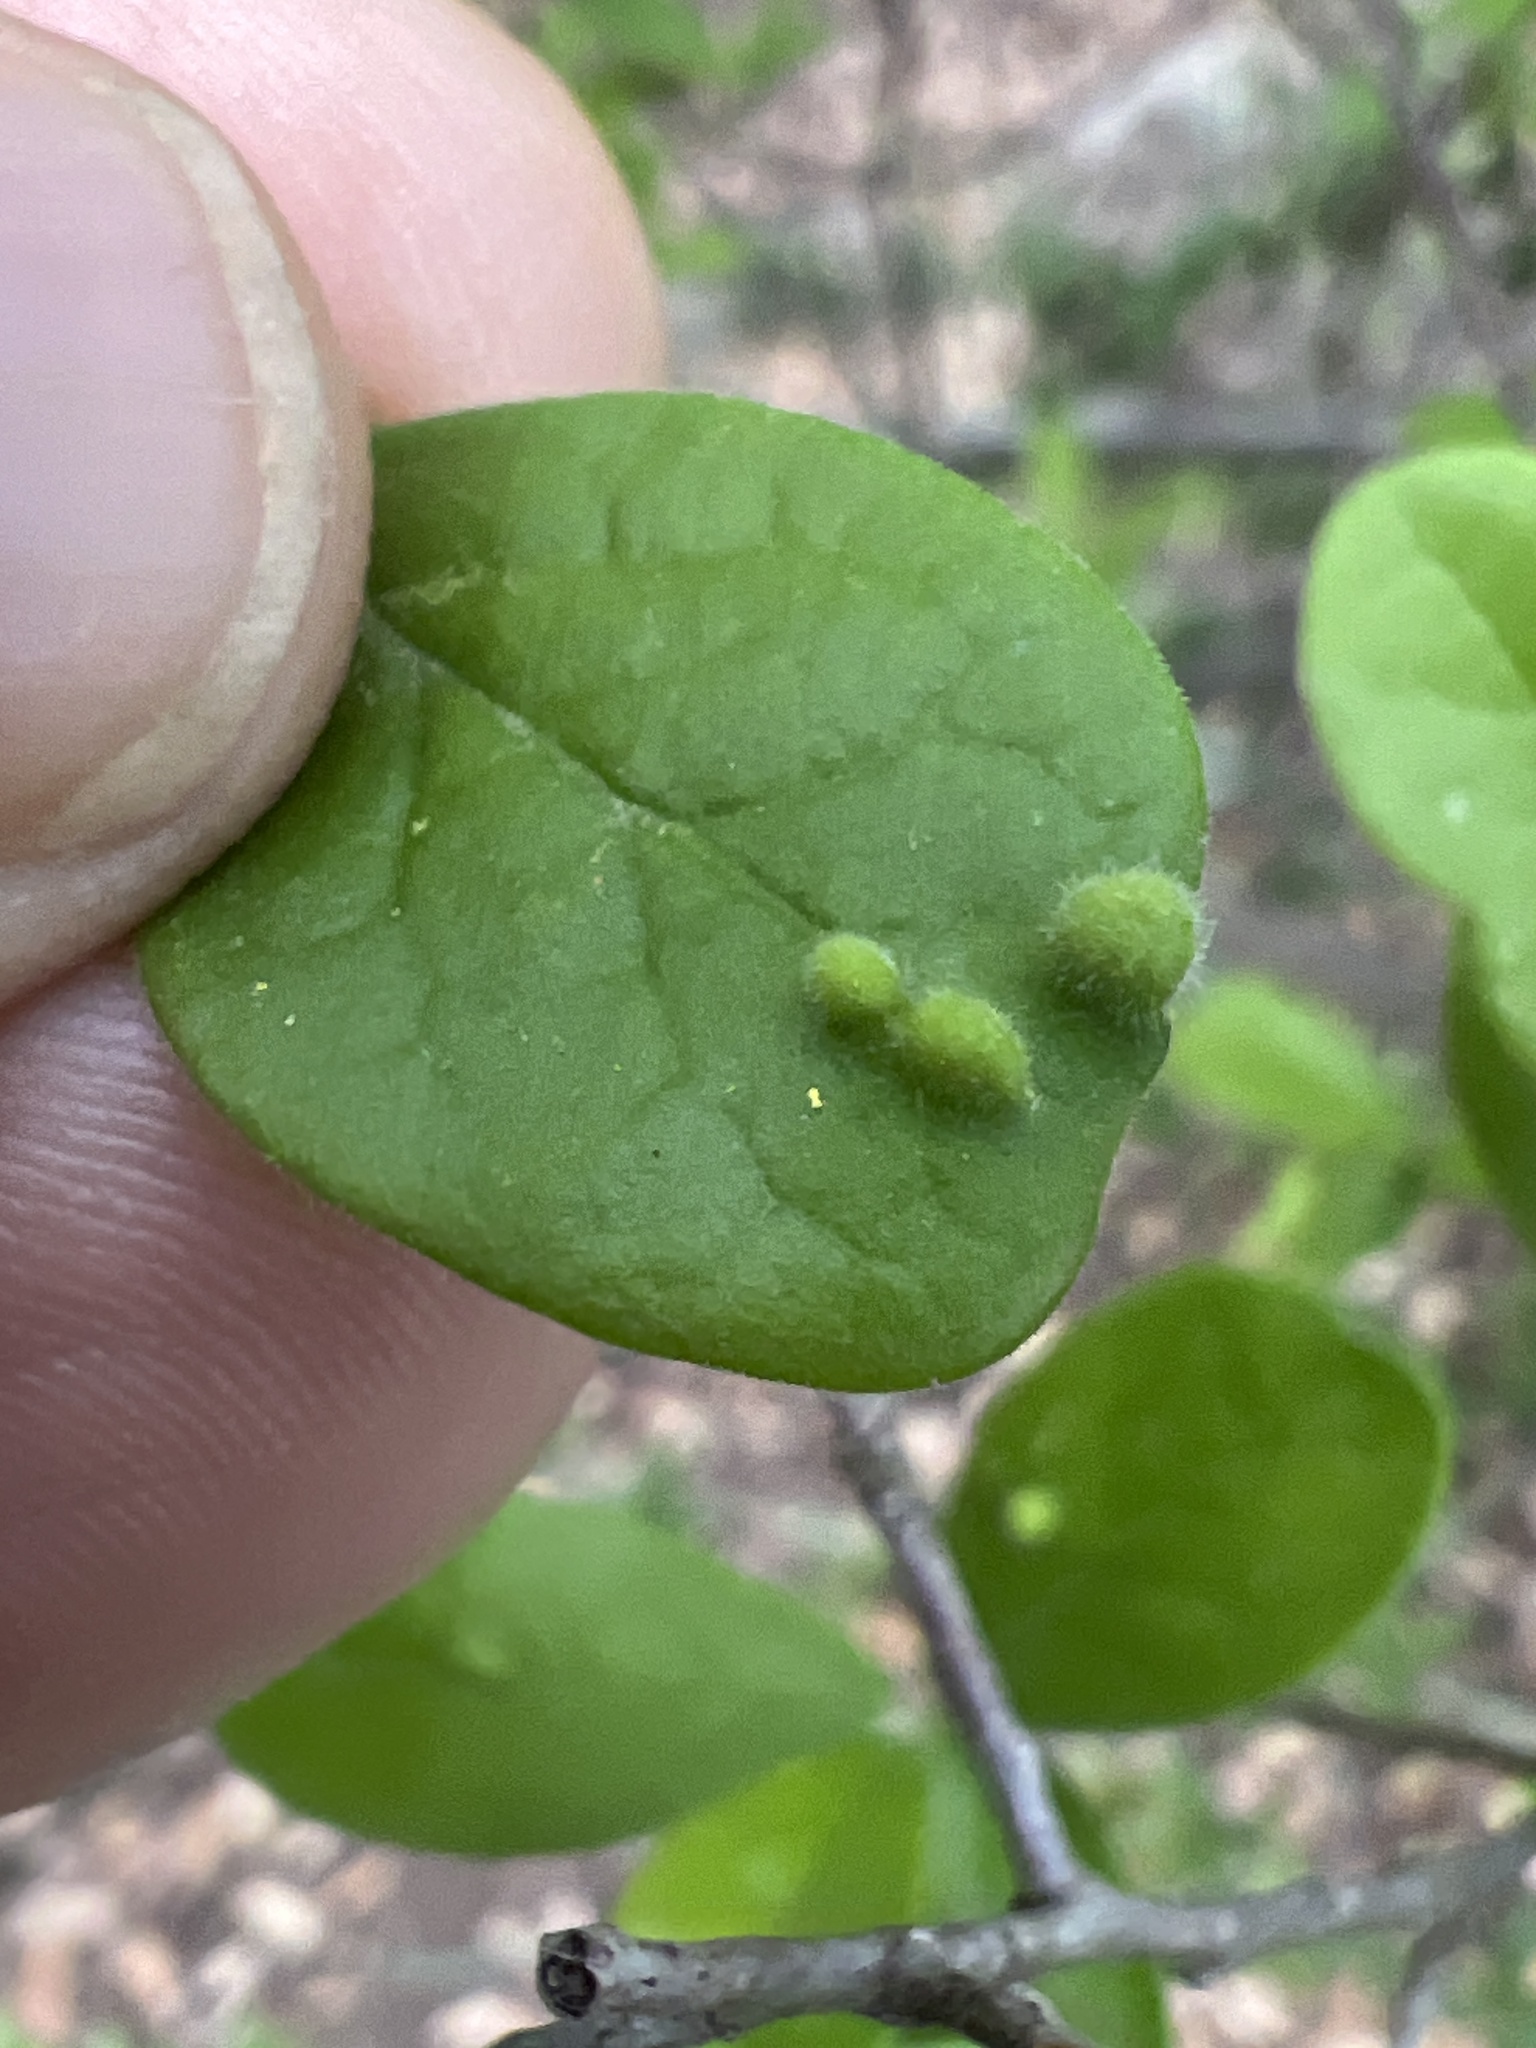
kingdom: Plantae
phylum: Tracheophyta
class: Magnoliopsida
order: Ericales
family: Ebenaceae
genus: Diospyros
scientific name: Diospyros texana
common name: Texas persimmon
